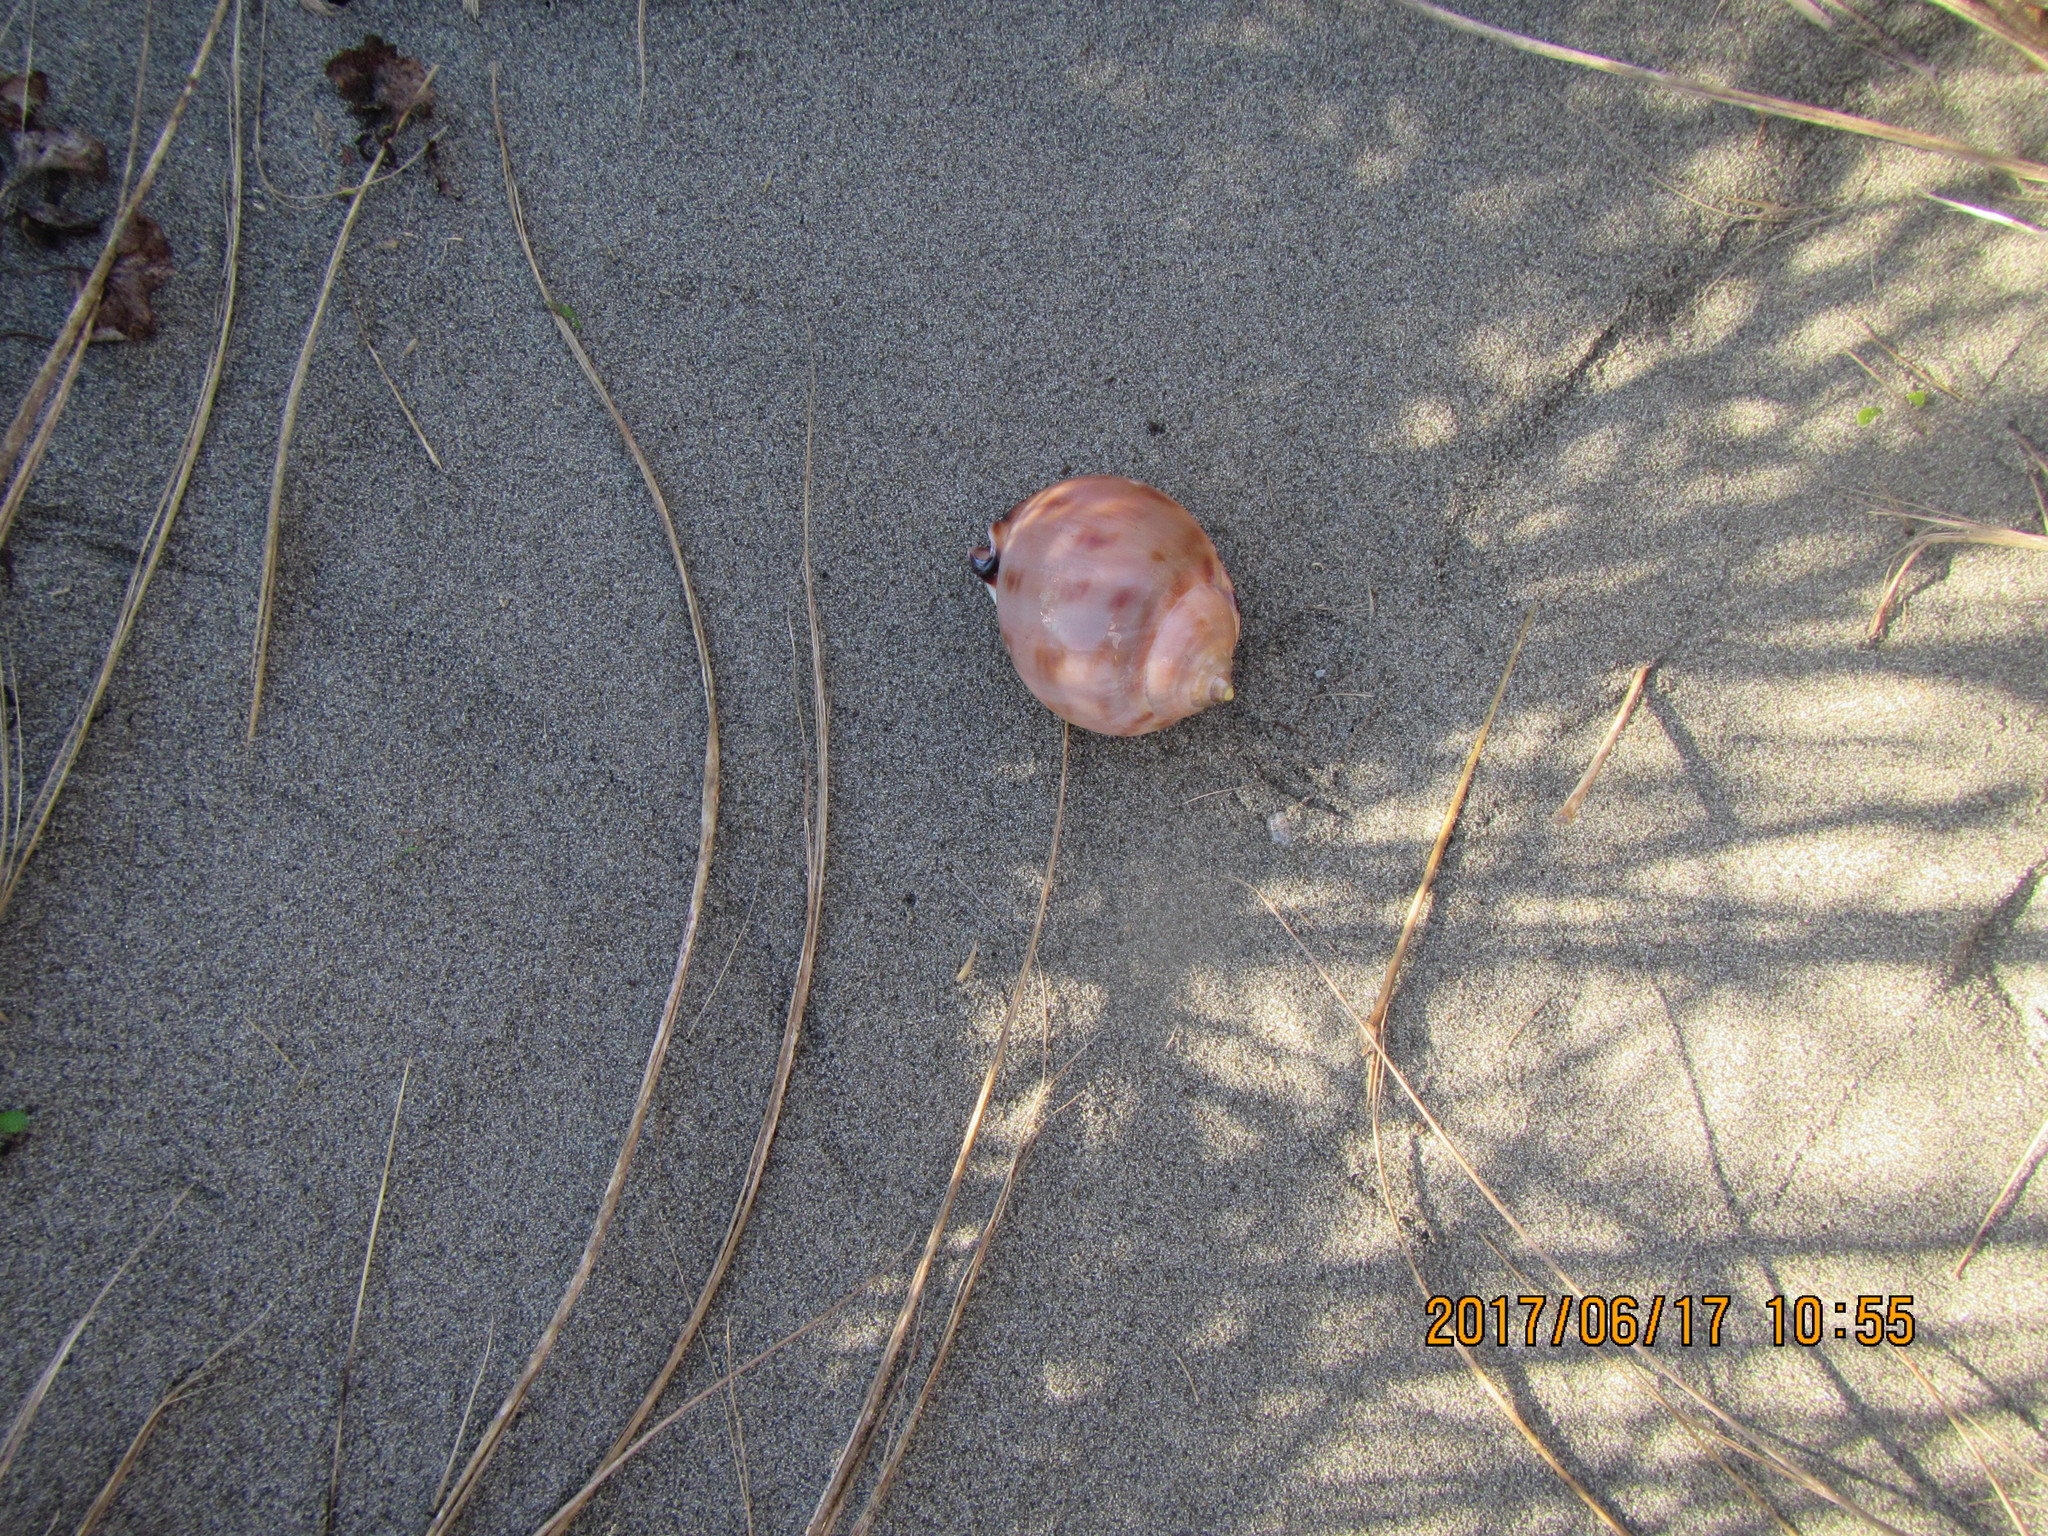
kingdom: Animalia
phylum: Mollusca
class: Gastropoda
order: Littorinimorpha
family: Cassidae
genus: Semicassis
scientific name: Semicassis pyrum
